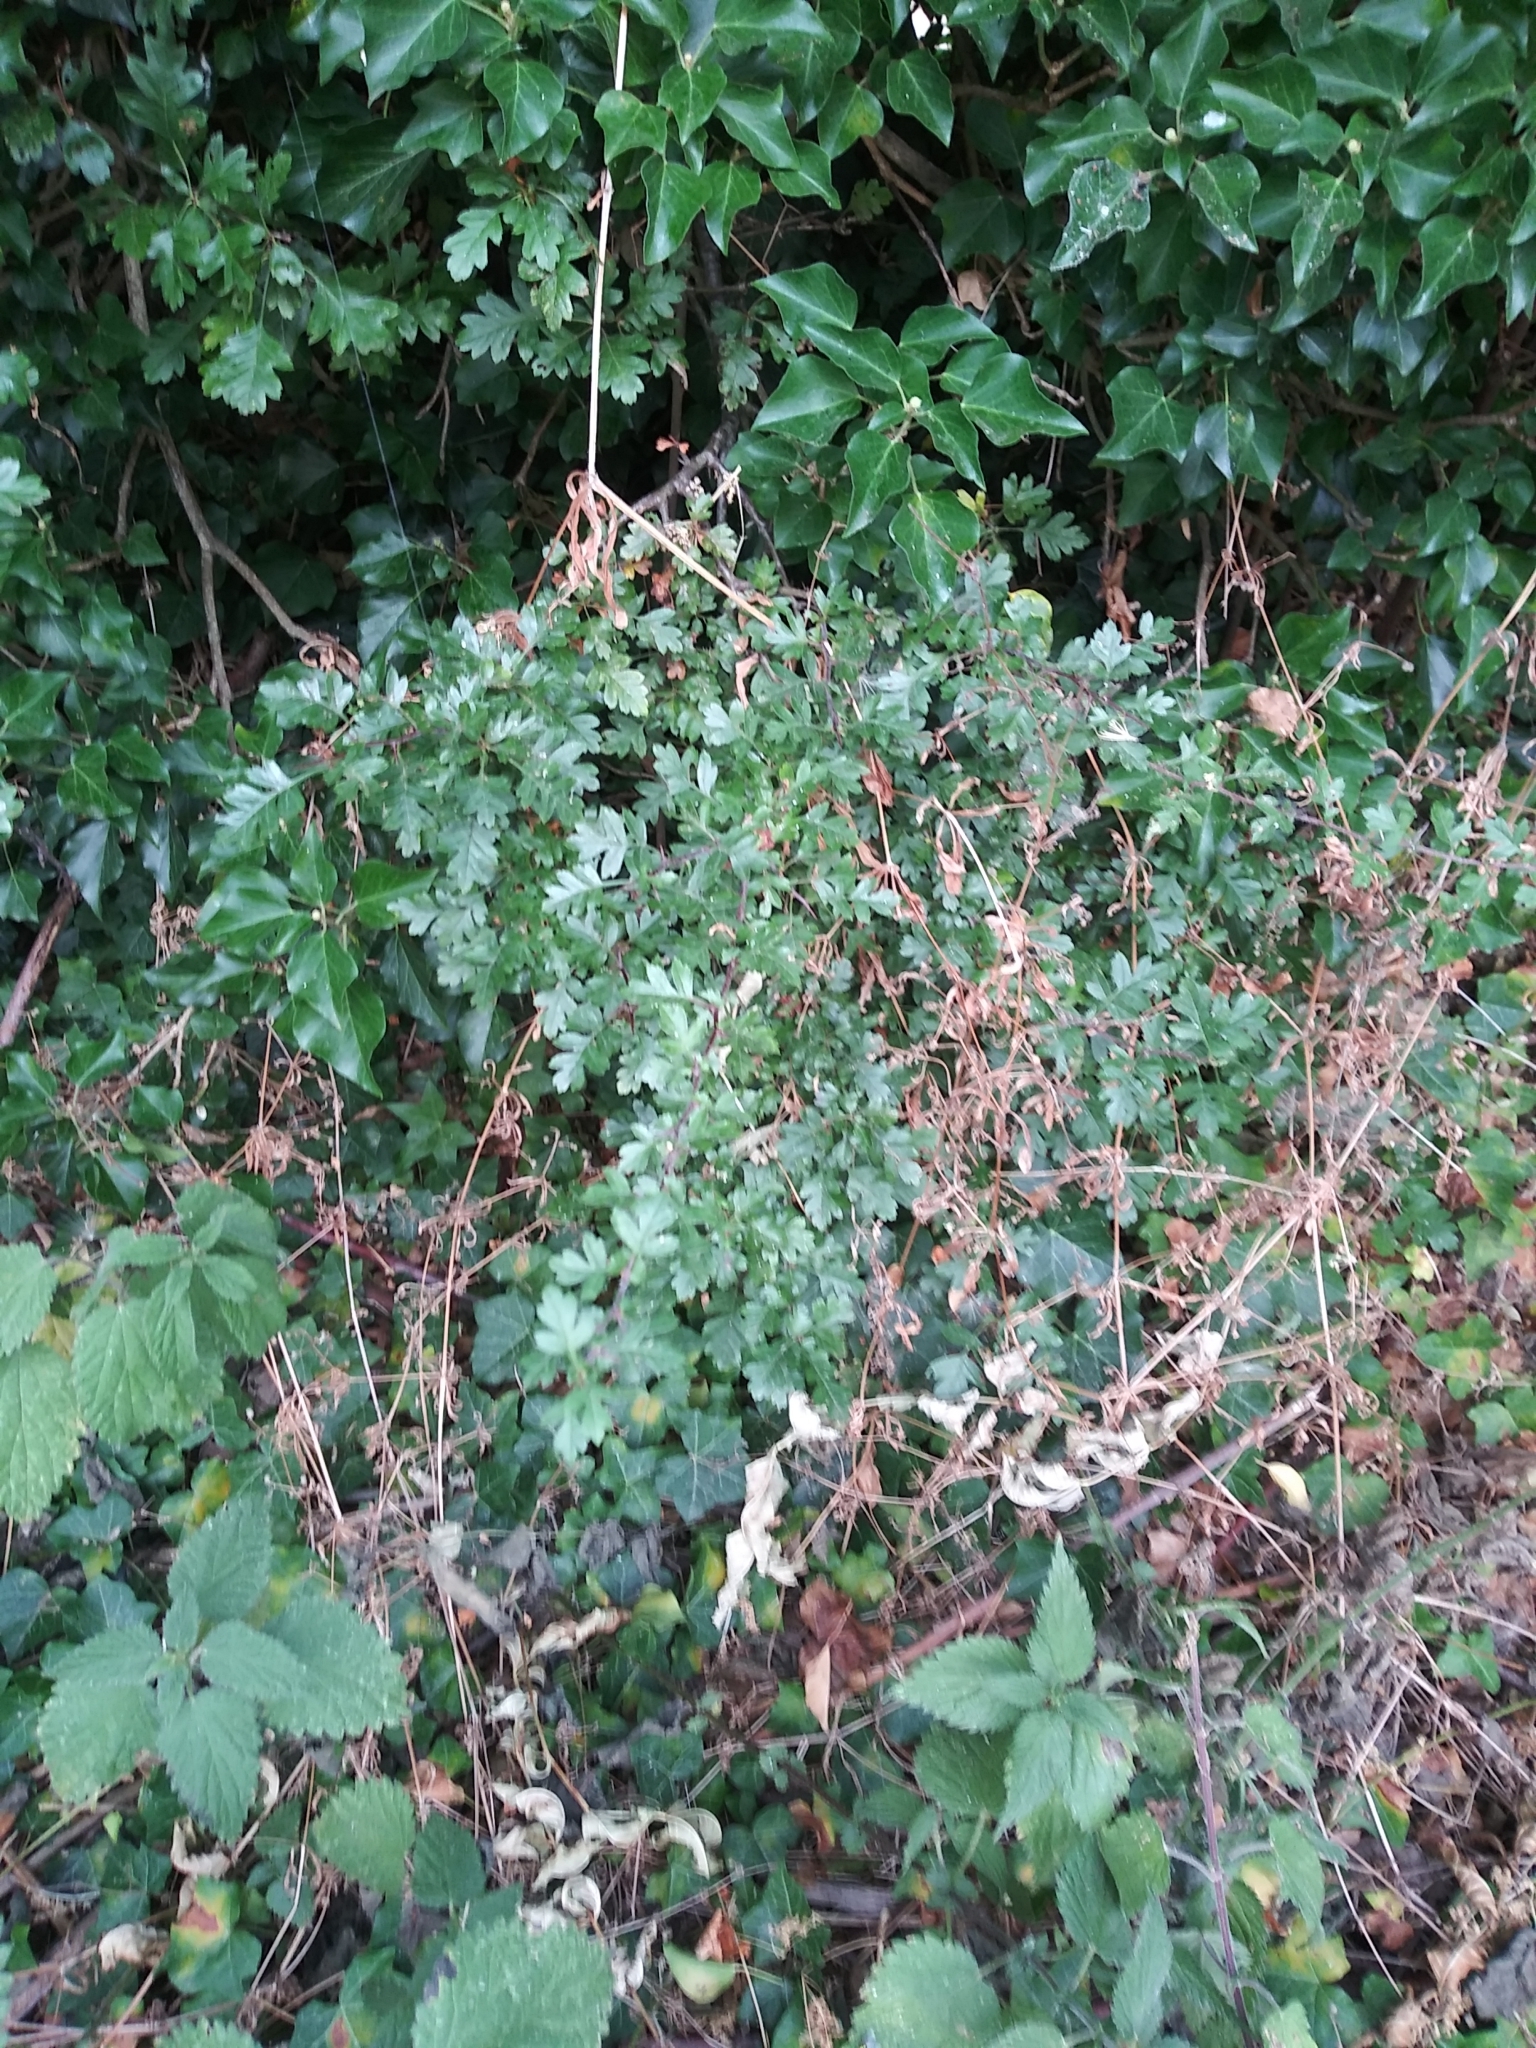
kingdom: Plantae
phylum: Tracheophyta
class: Magnoliopsida
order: Rosales
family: Rosaceae
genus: Crataegus
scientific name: Crataegus monogyna
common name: Hawthorn
